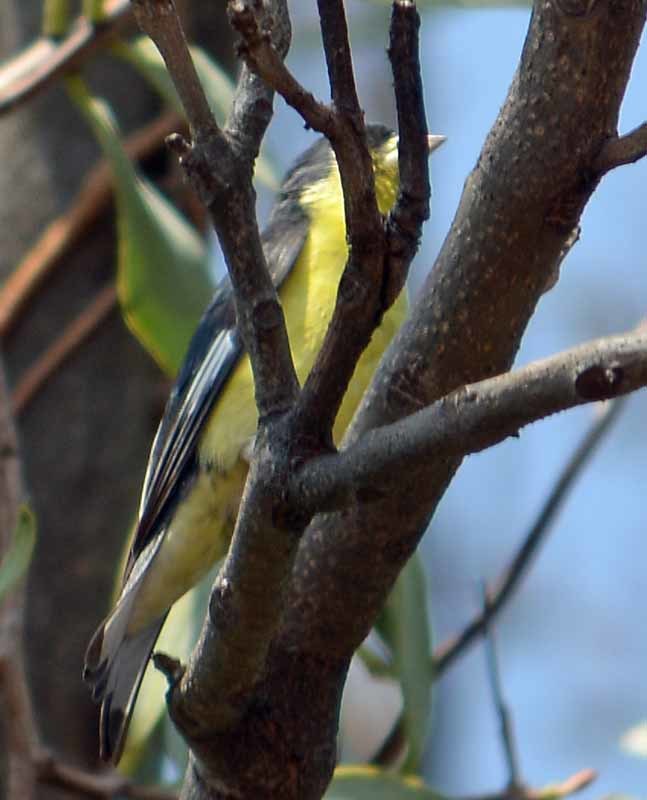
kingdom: Animalia
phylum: Chordata
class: Aves
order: Passeriformes
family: Fringillidae
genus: Spinus
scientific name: Spinus psaltria
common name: Lesser goldfinch
